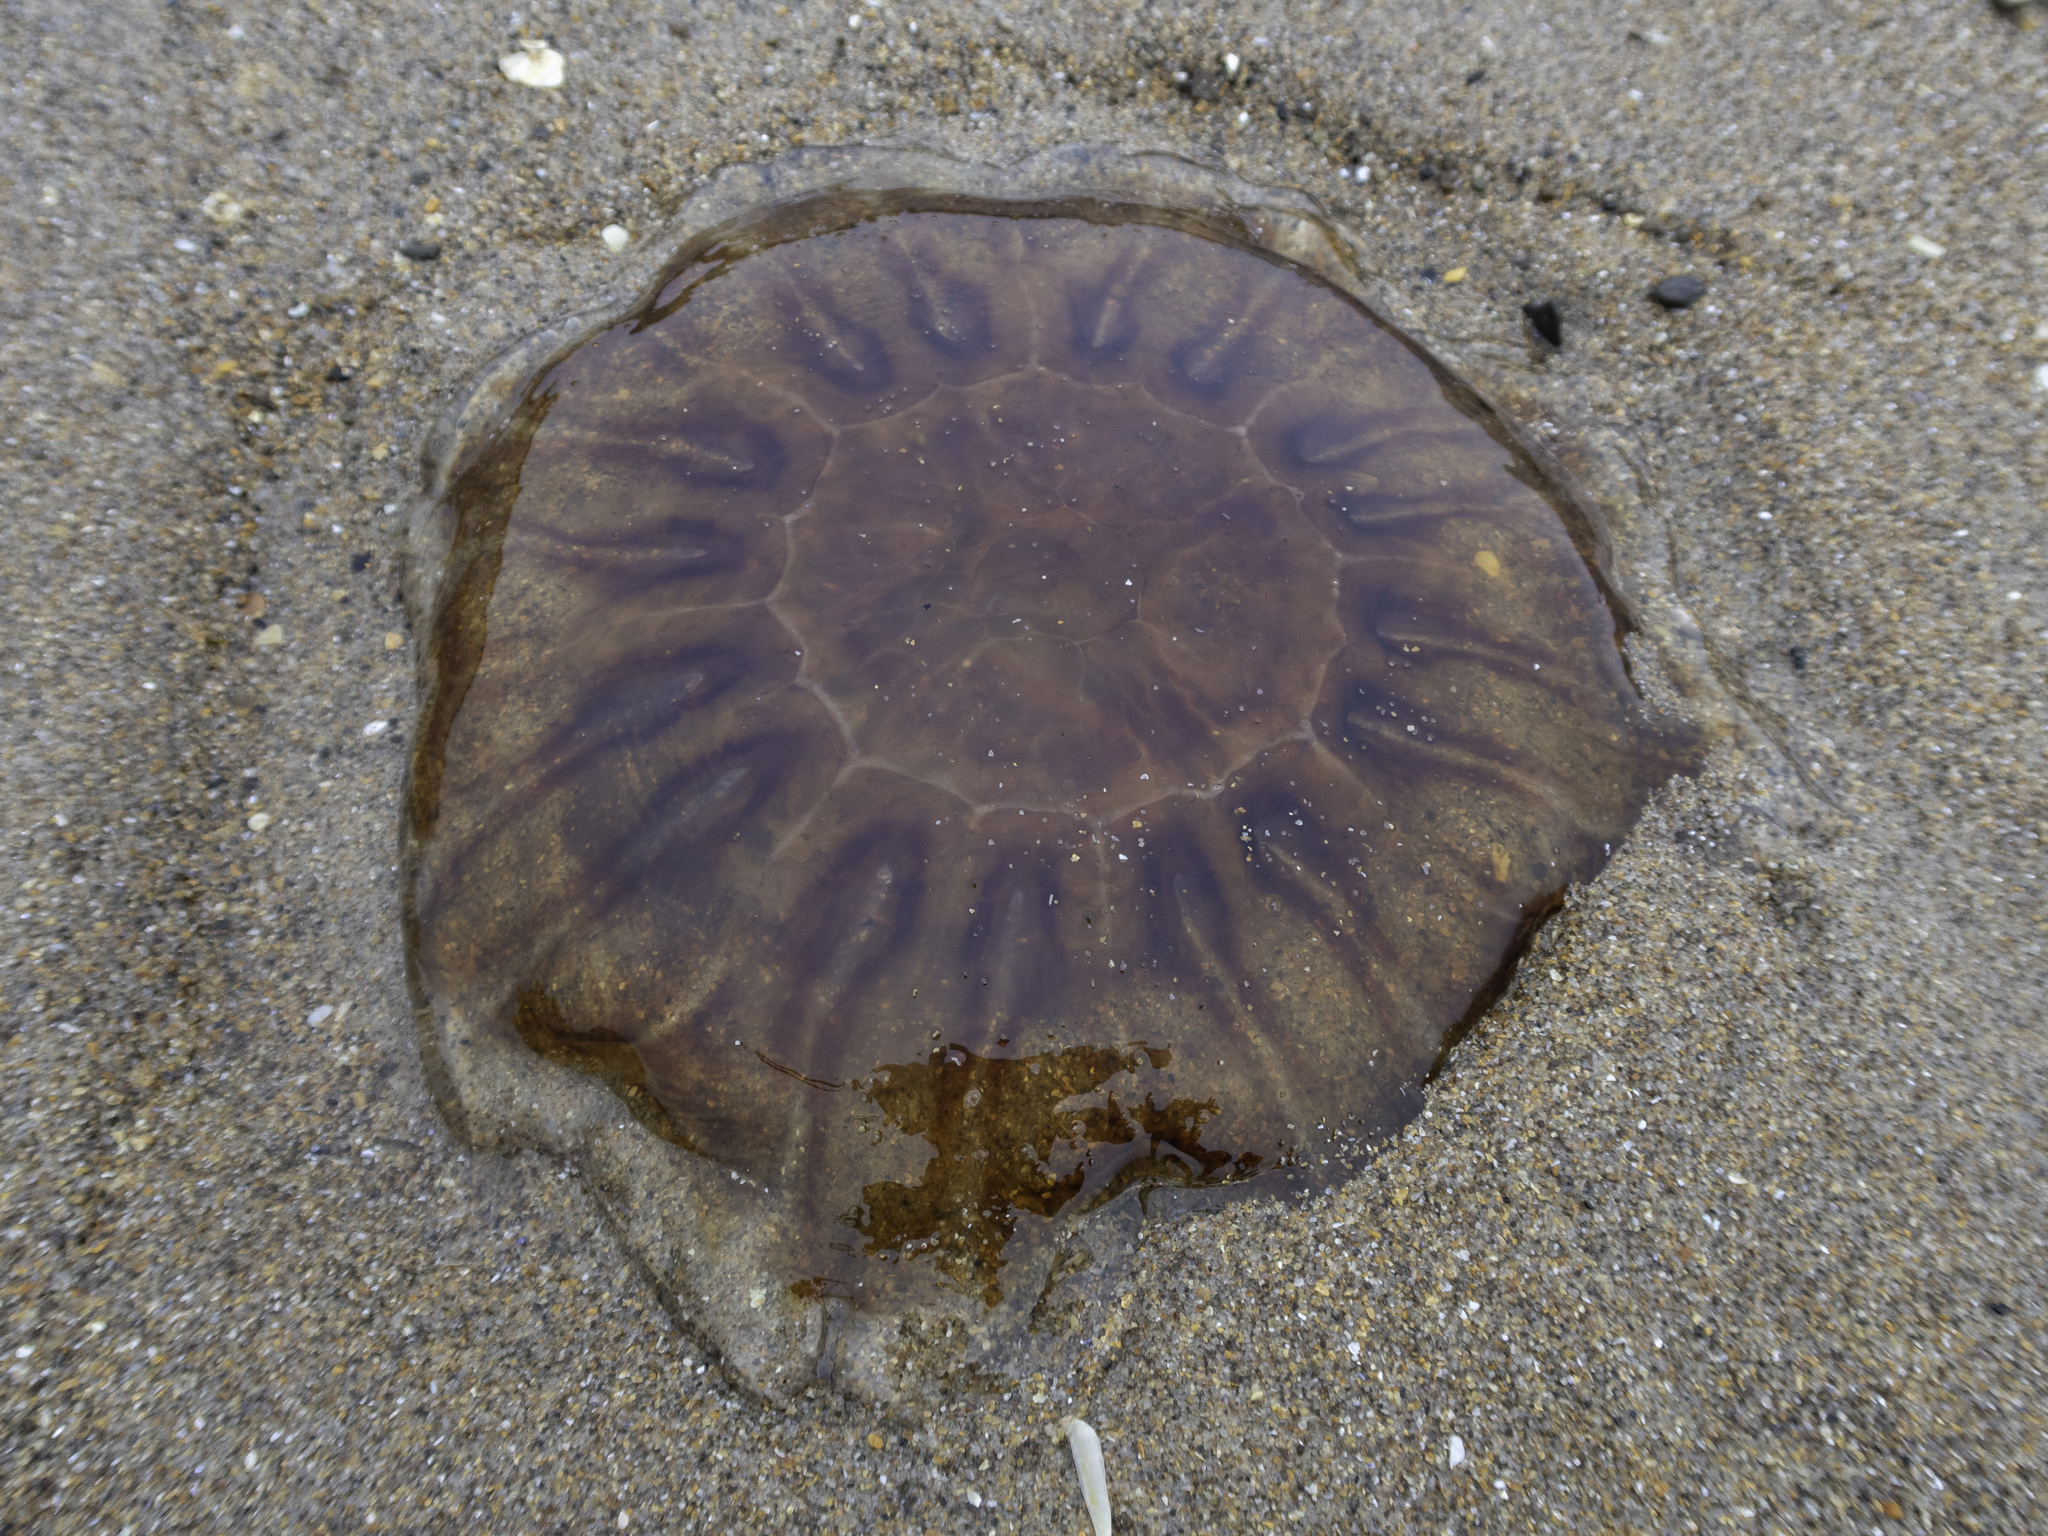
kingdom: Animalia
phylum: Cnidaria
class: Scyphozoa
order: Semaeostomeae
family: Cyaneidae
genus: Cyanea
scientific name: Cyanea capillata
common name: Lion's mane jellyfish
